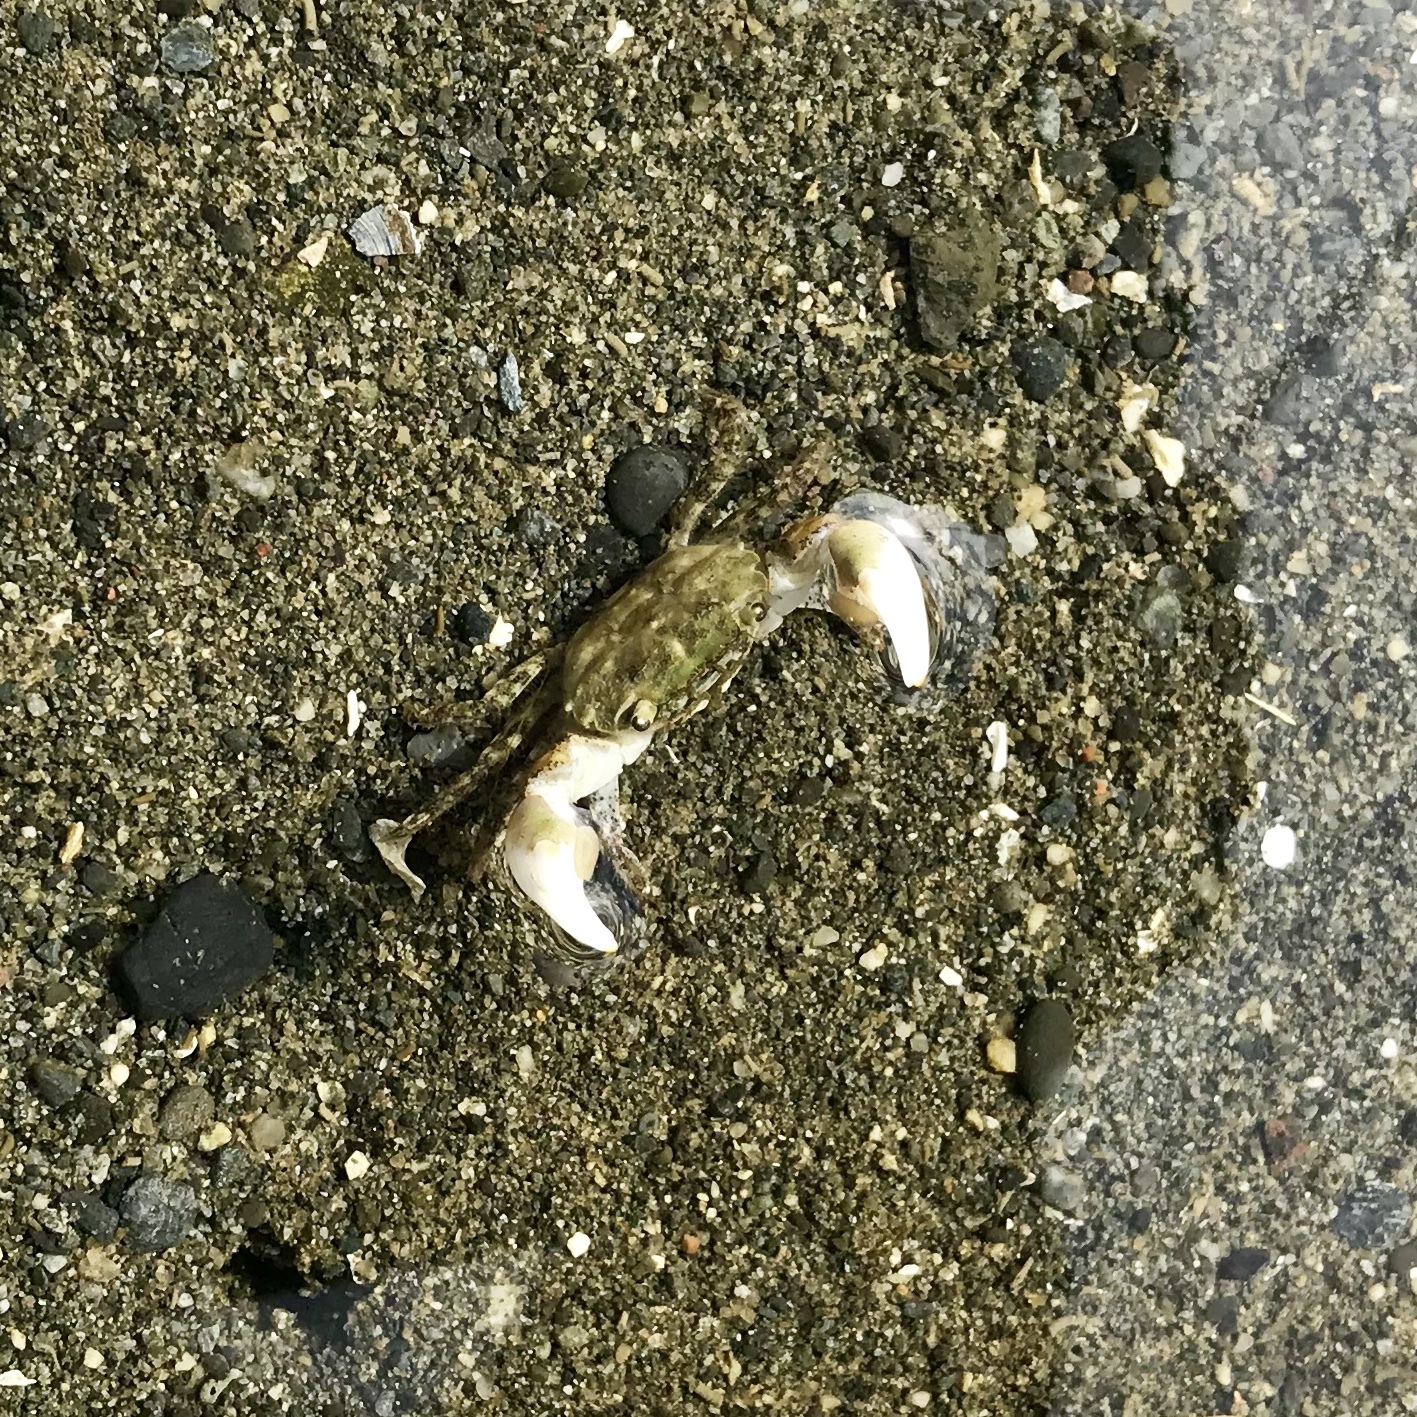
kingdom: Animalia
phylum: Arthropoda
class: Malacostraca
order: Decapoda
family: Varunidae
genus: Hemigrapsus
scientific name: Hemigrapsus oregonensis
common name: Yellow shore crab
